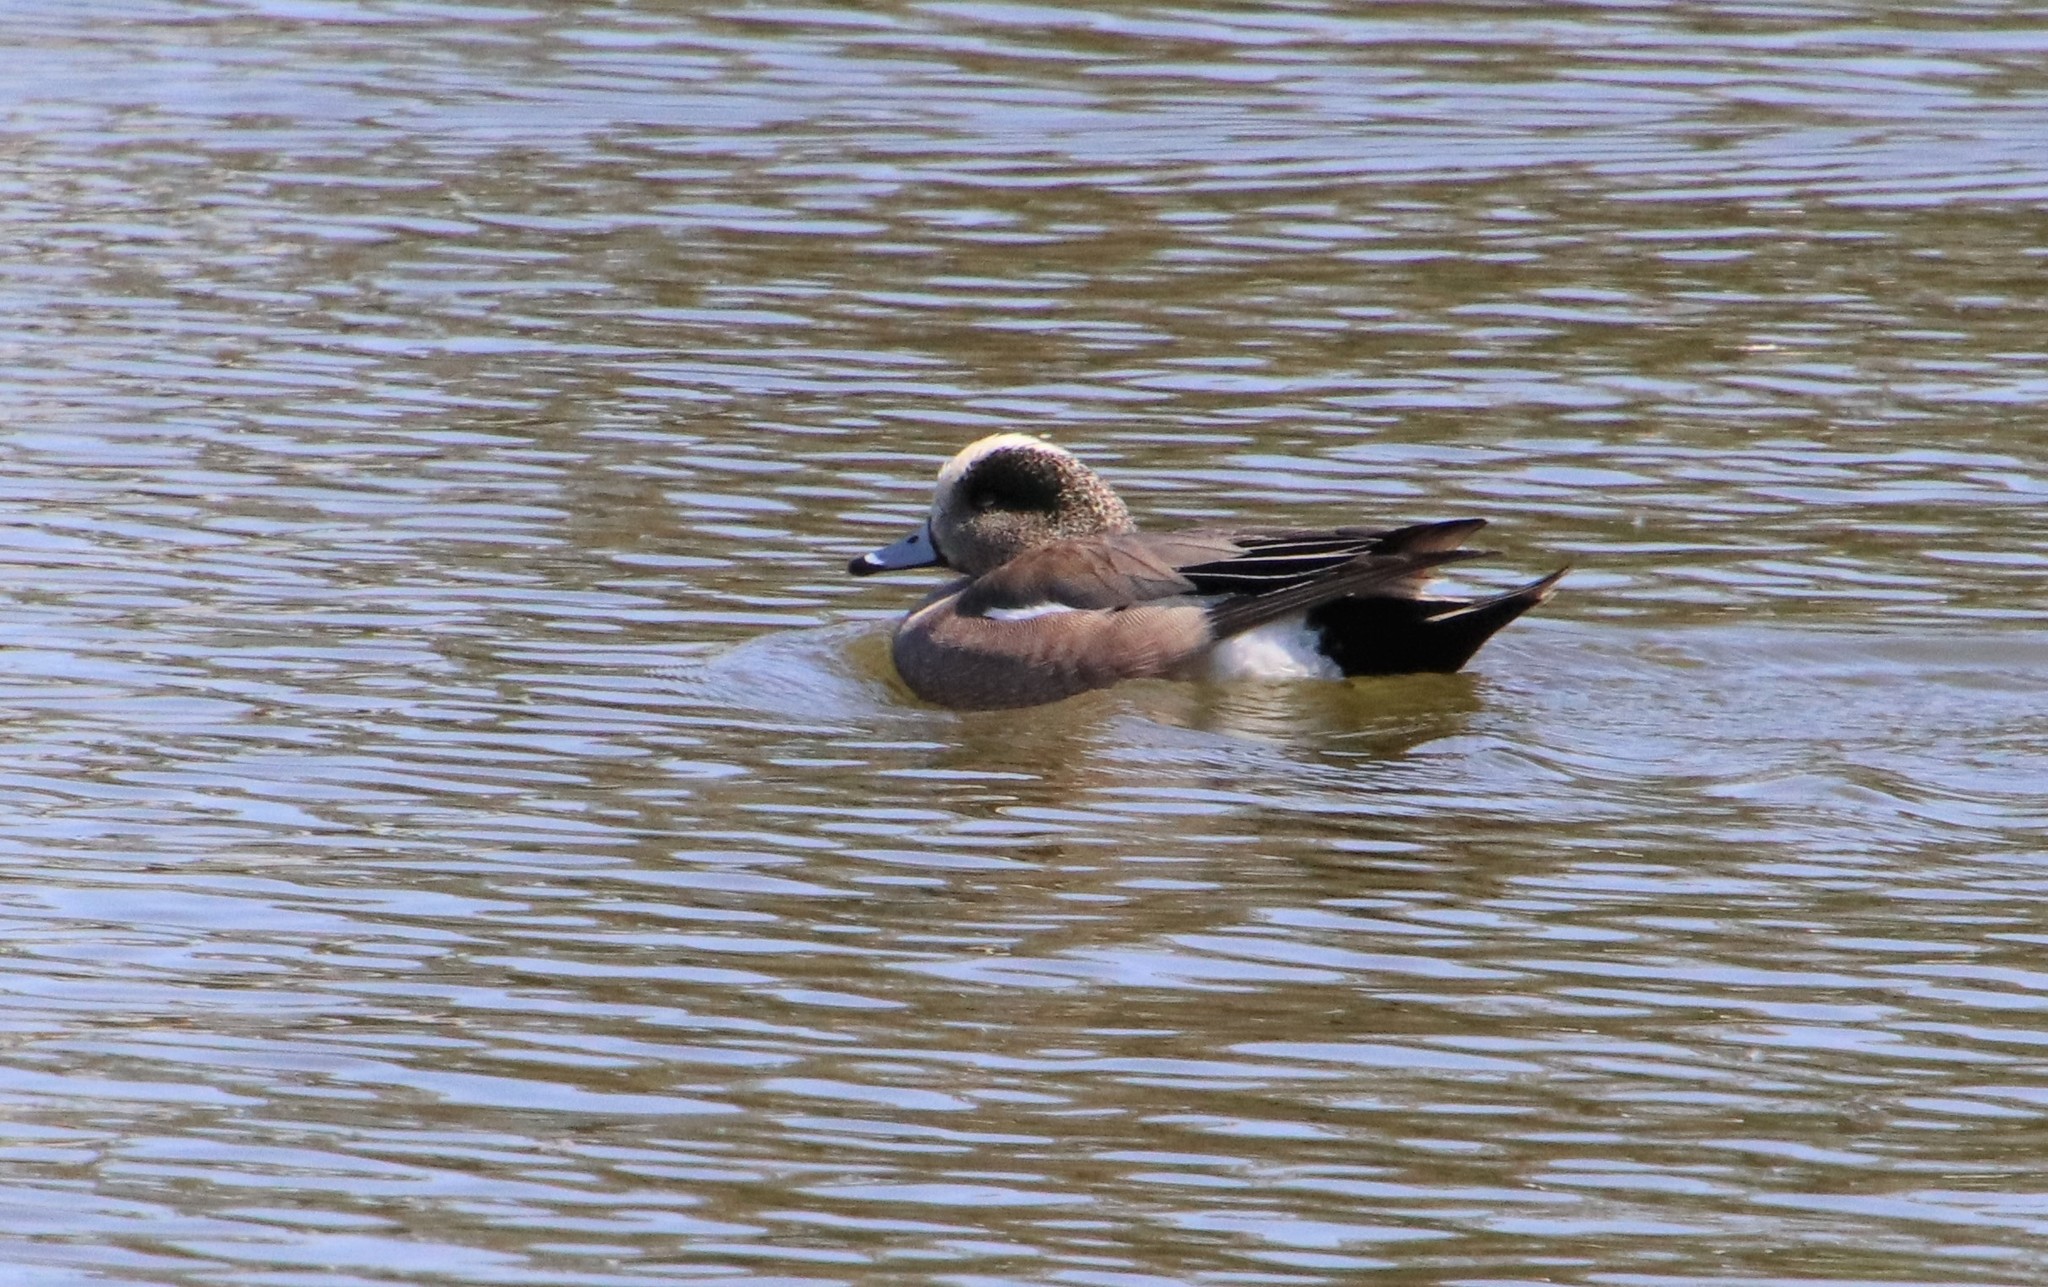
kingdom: Animalia
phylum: Chordata
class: Aves
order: Anseriformes
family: Anatidae
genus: Mareca
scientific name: Mareca americana
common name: American wigeon
